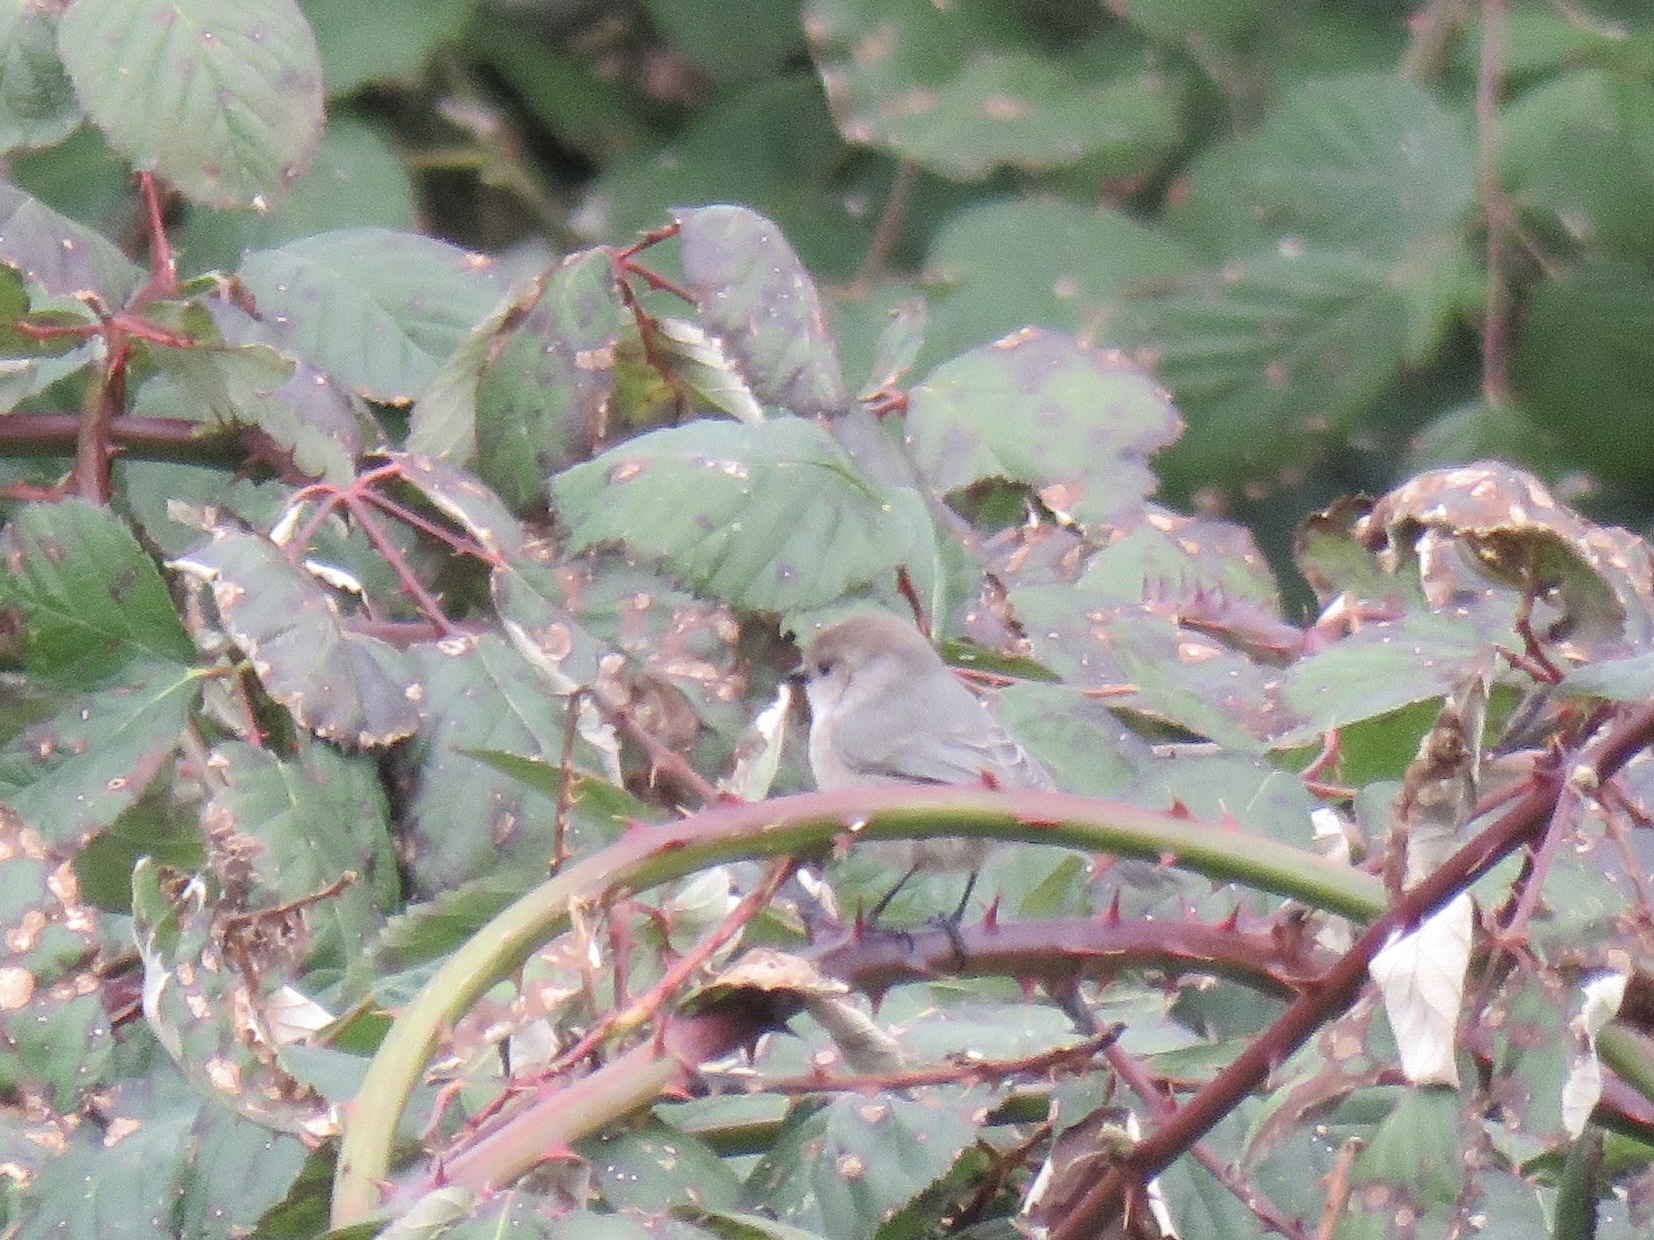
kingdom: Animalia
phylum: Chordata
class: Aves
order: Passeriformes
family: Aegithalidae
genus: Psaltriparus
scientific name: Psaltriparus minimus
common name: American bushtit
